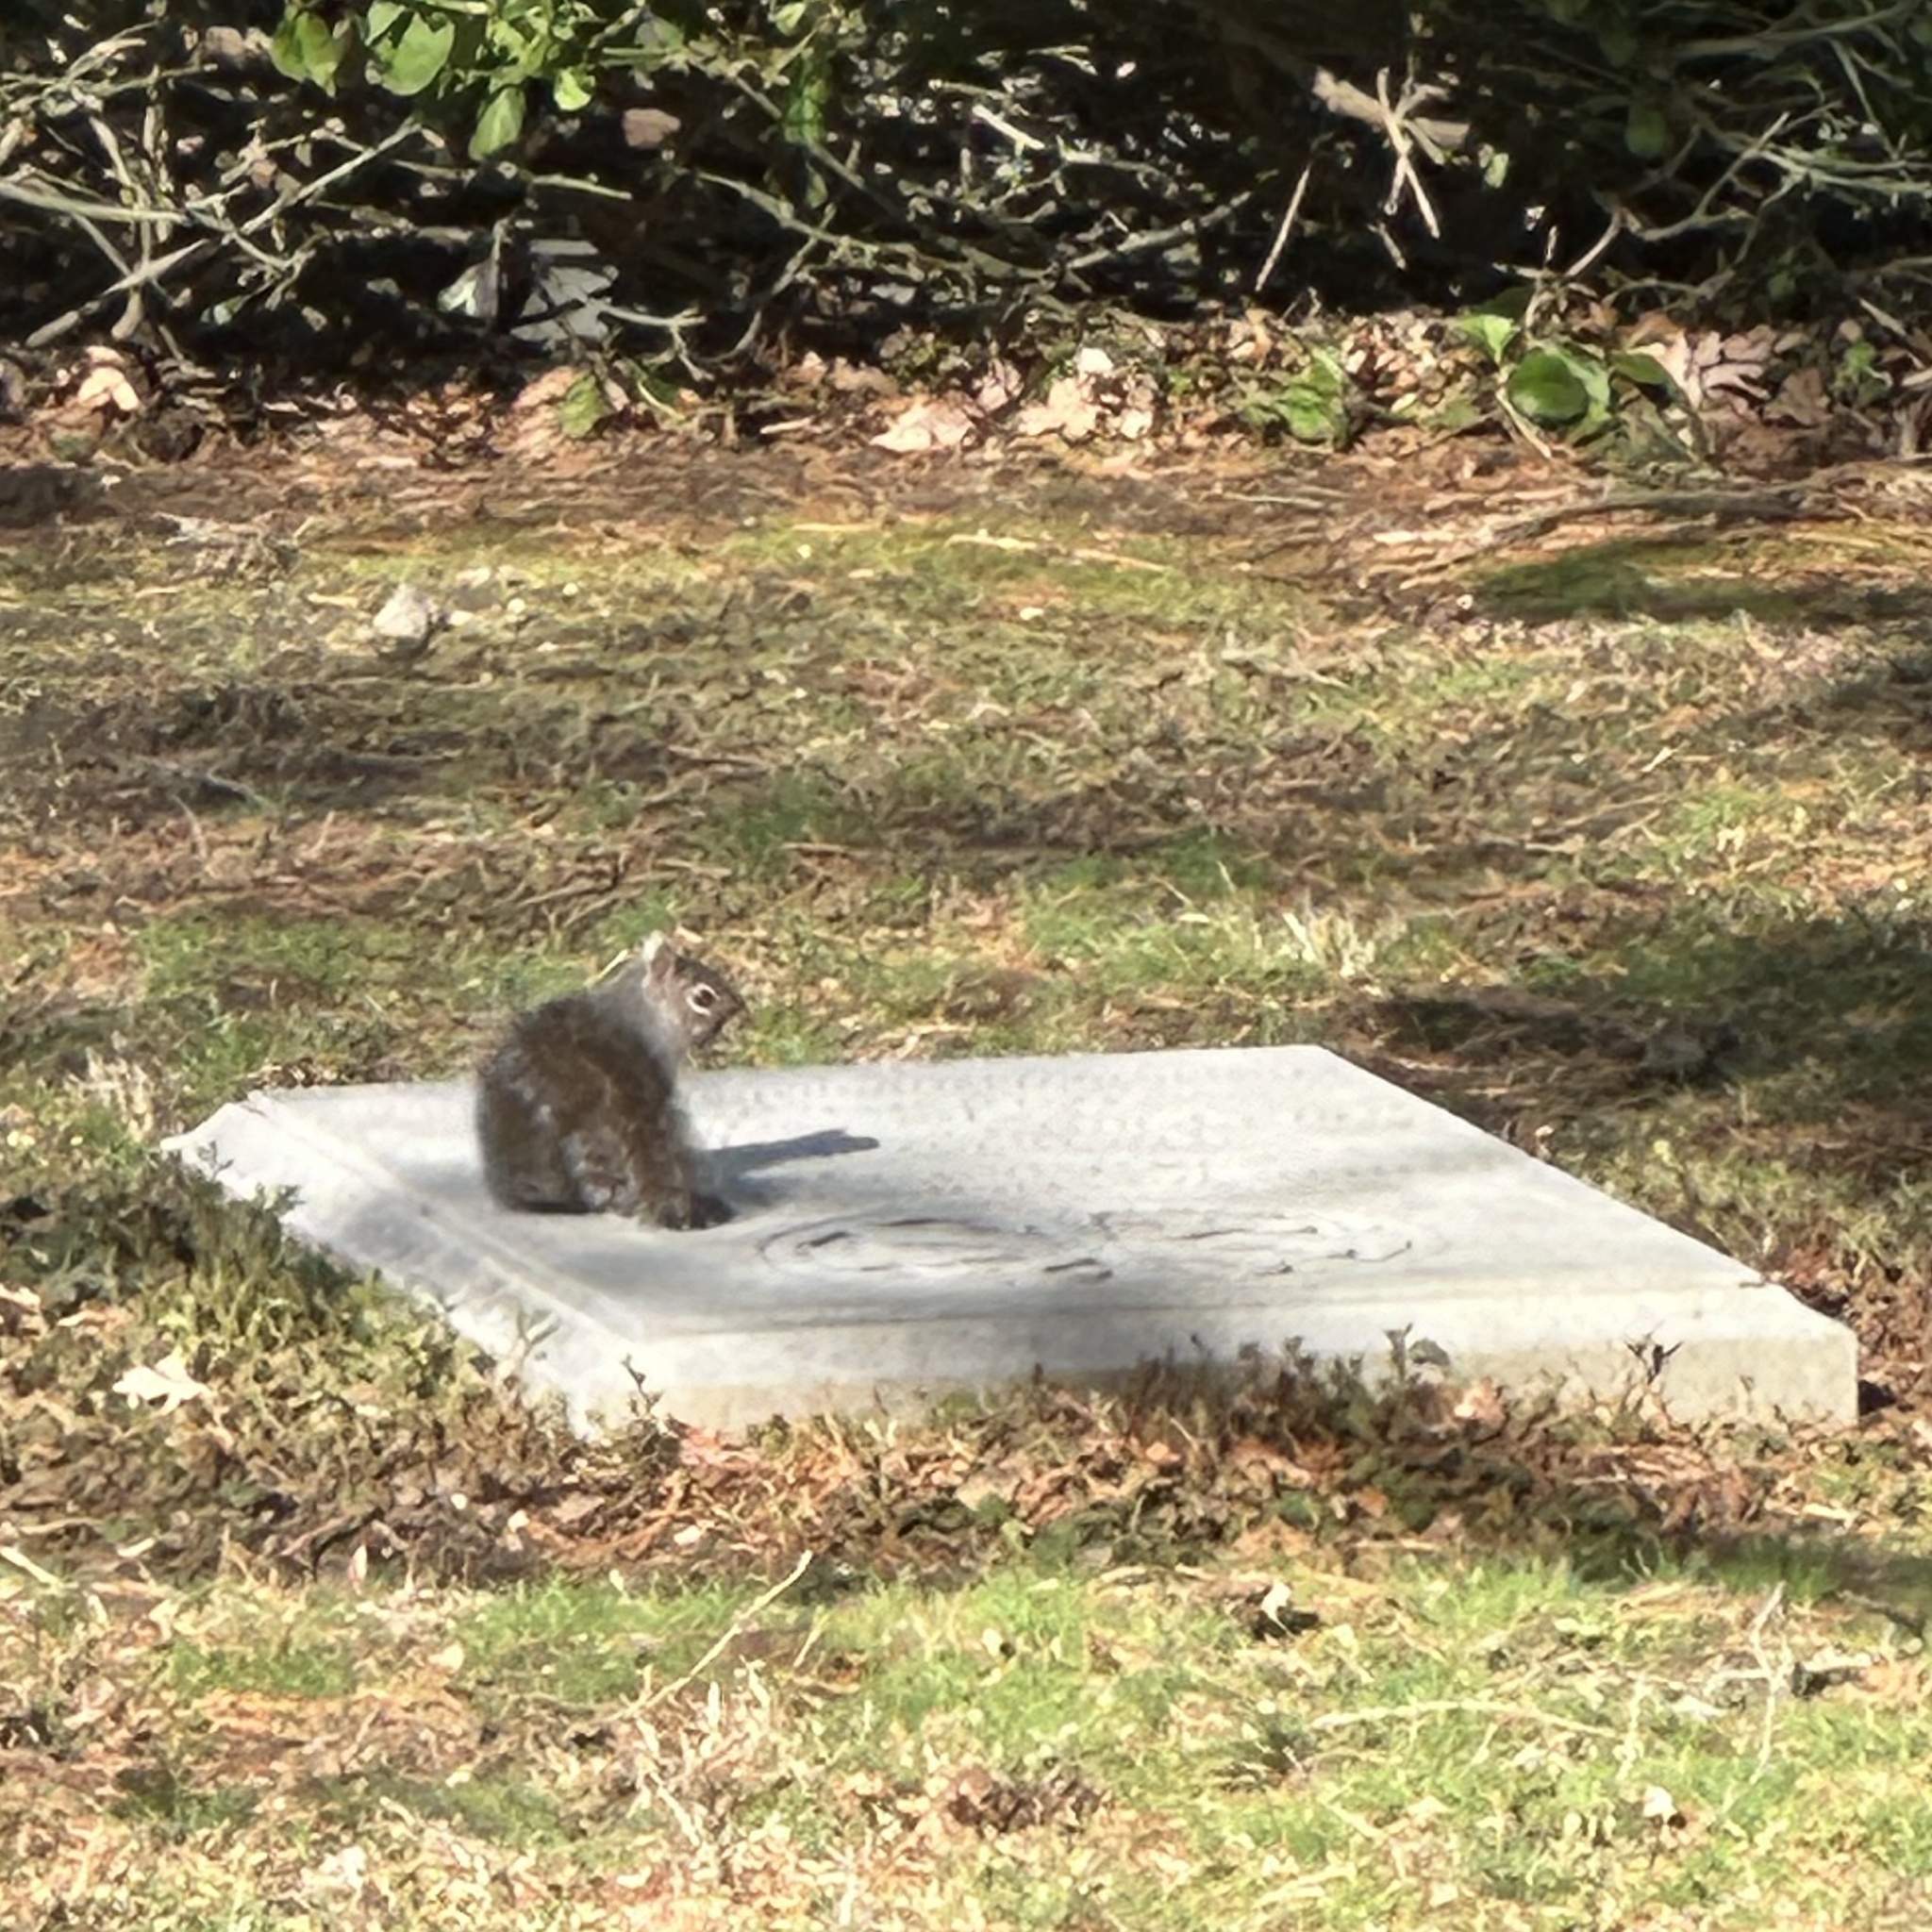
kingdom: Animalia
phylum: Chordata
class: Mammalia
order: Rodentia
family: Sciuridae
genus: Sciurus
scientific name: Sciurus carolinensis
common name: Eastern gray squirrel
